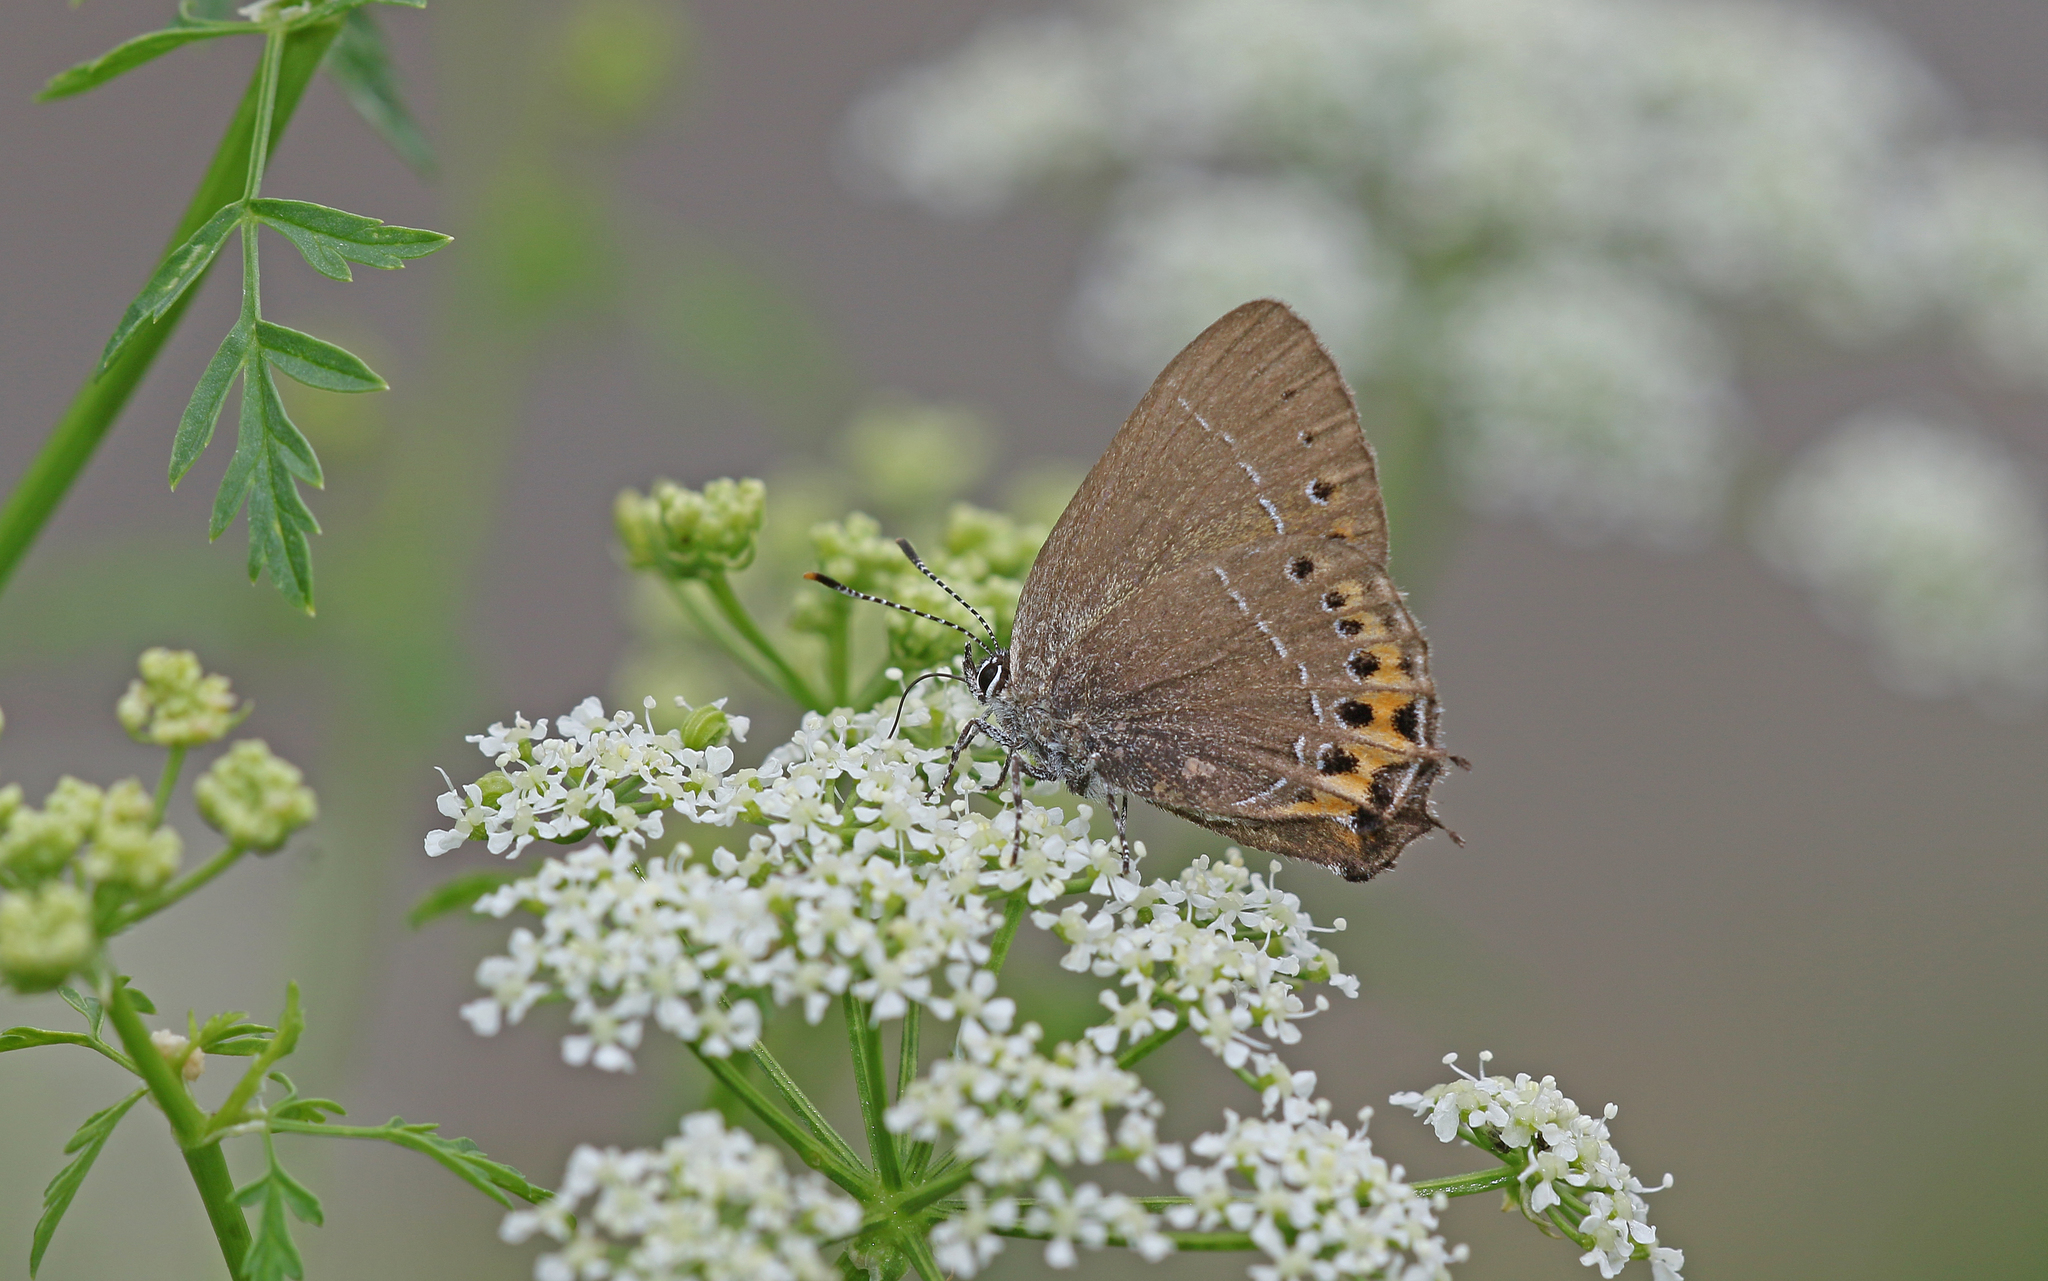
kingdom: Animalia
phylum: Arthropoda
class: Insecta
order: Lepidoptera
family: Lycaenidae
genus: Fixsenia
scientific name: Fixsenia pruni
